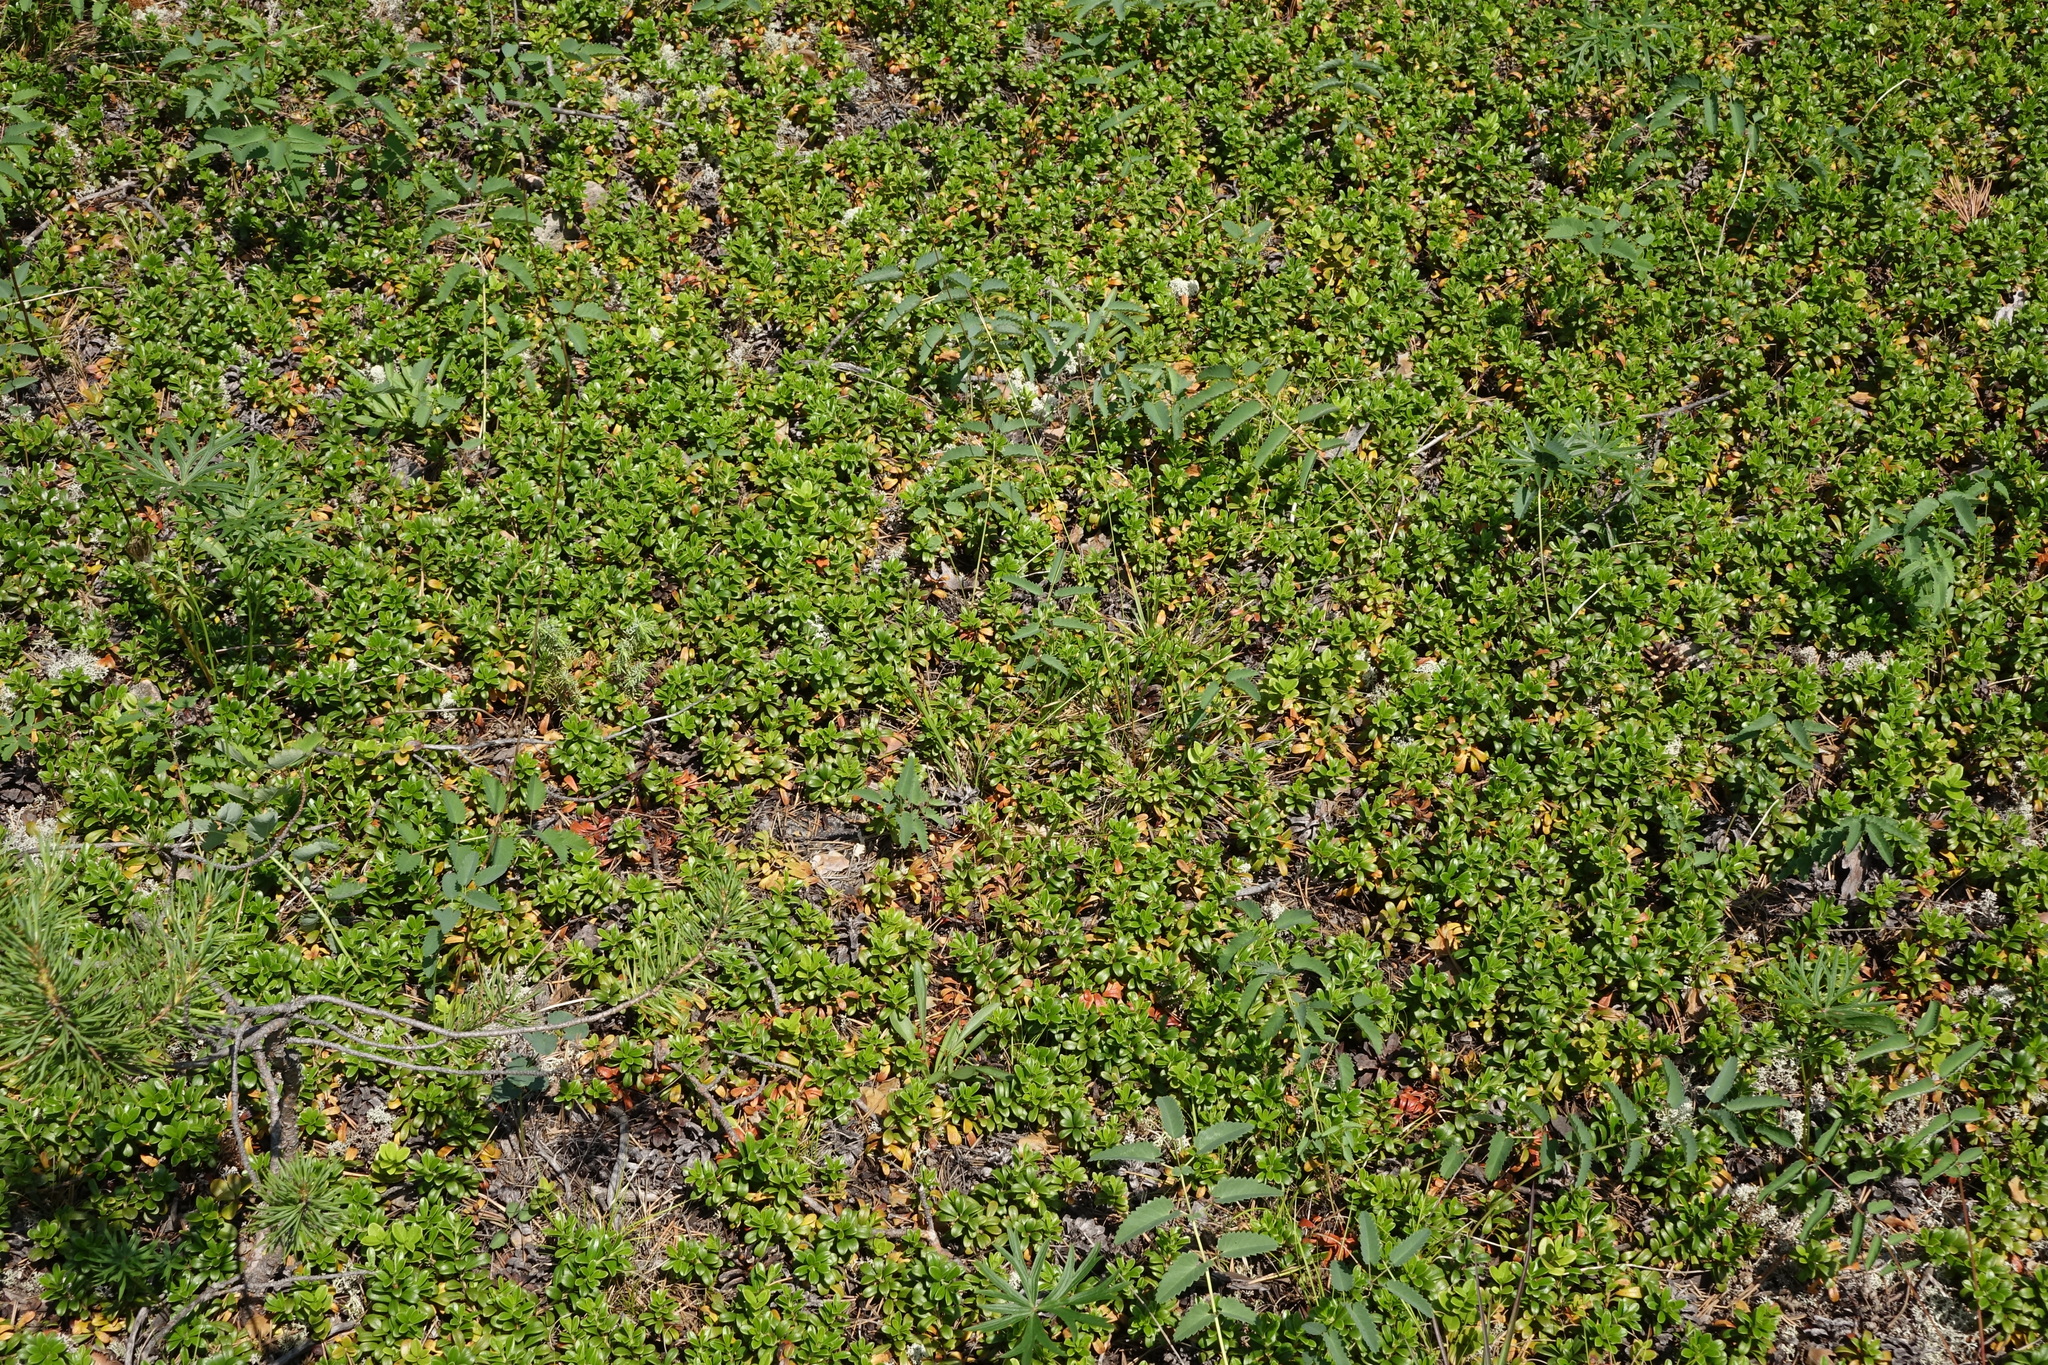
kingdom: Plantae
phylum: Tracheophyta
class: Magnoliopsida
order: Ericales
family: Ericaceae
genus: Arctostaphylos
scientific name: Arctostaphylos uva-ursi
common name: Bearberry
